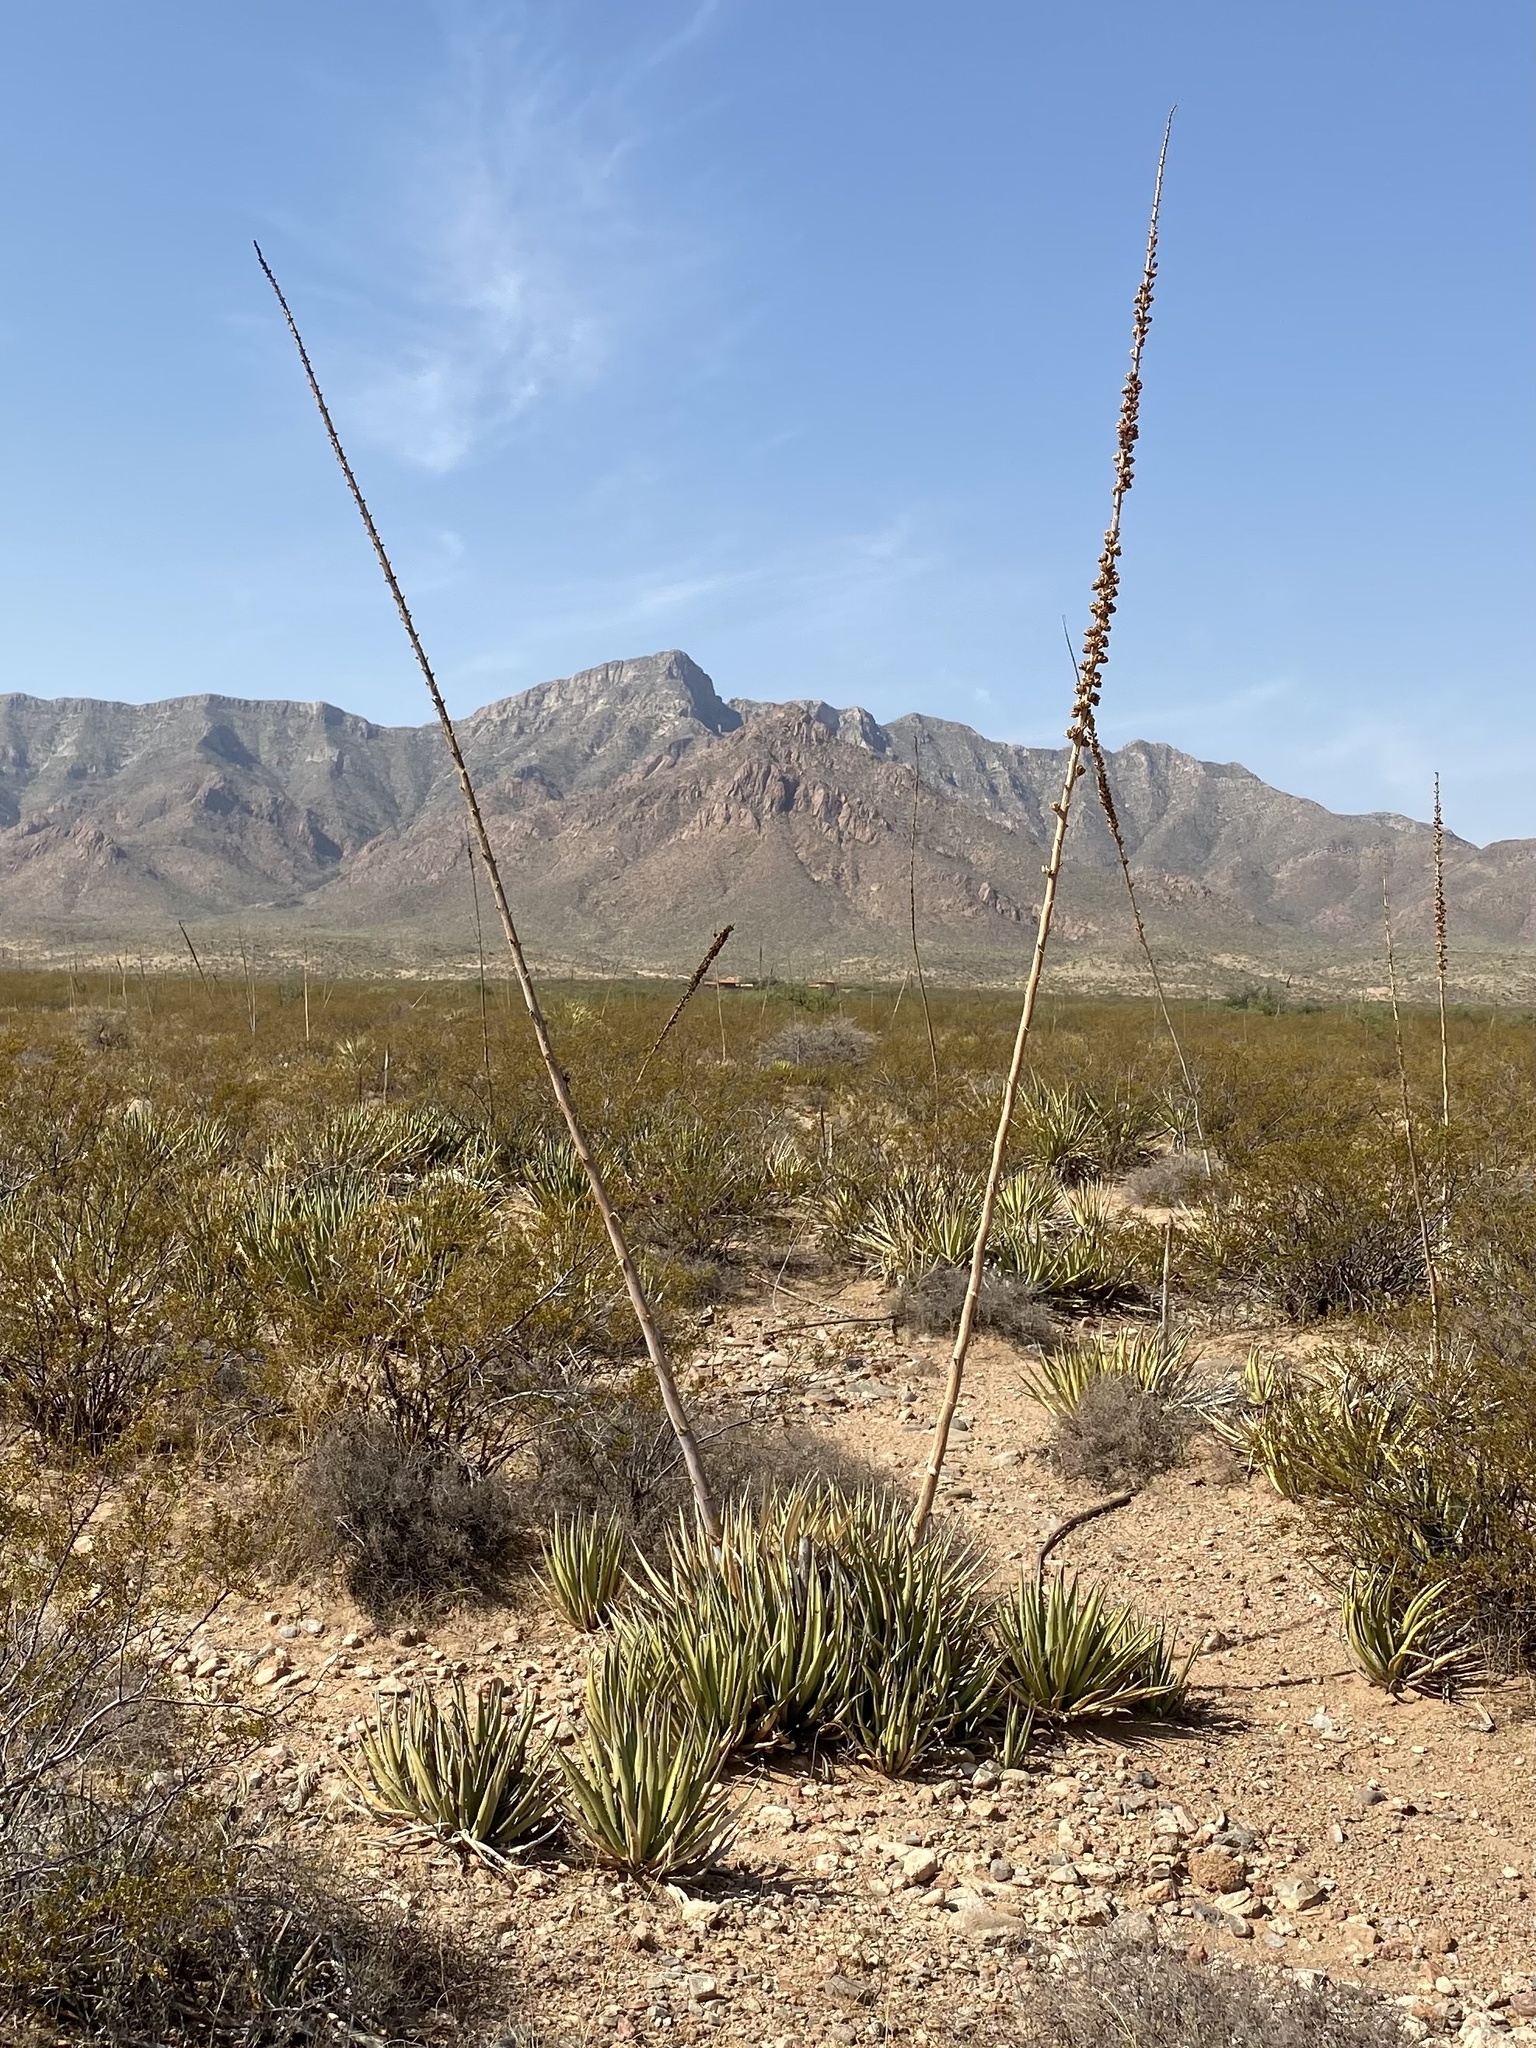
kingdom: Plantae
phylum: Tracheophyta
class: Liliopsida
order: Asparagales
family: Asparagaceae
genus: Agave
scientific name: Agave lechuguilla
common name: Lecheguilla agave
